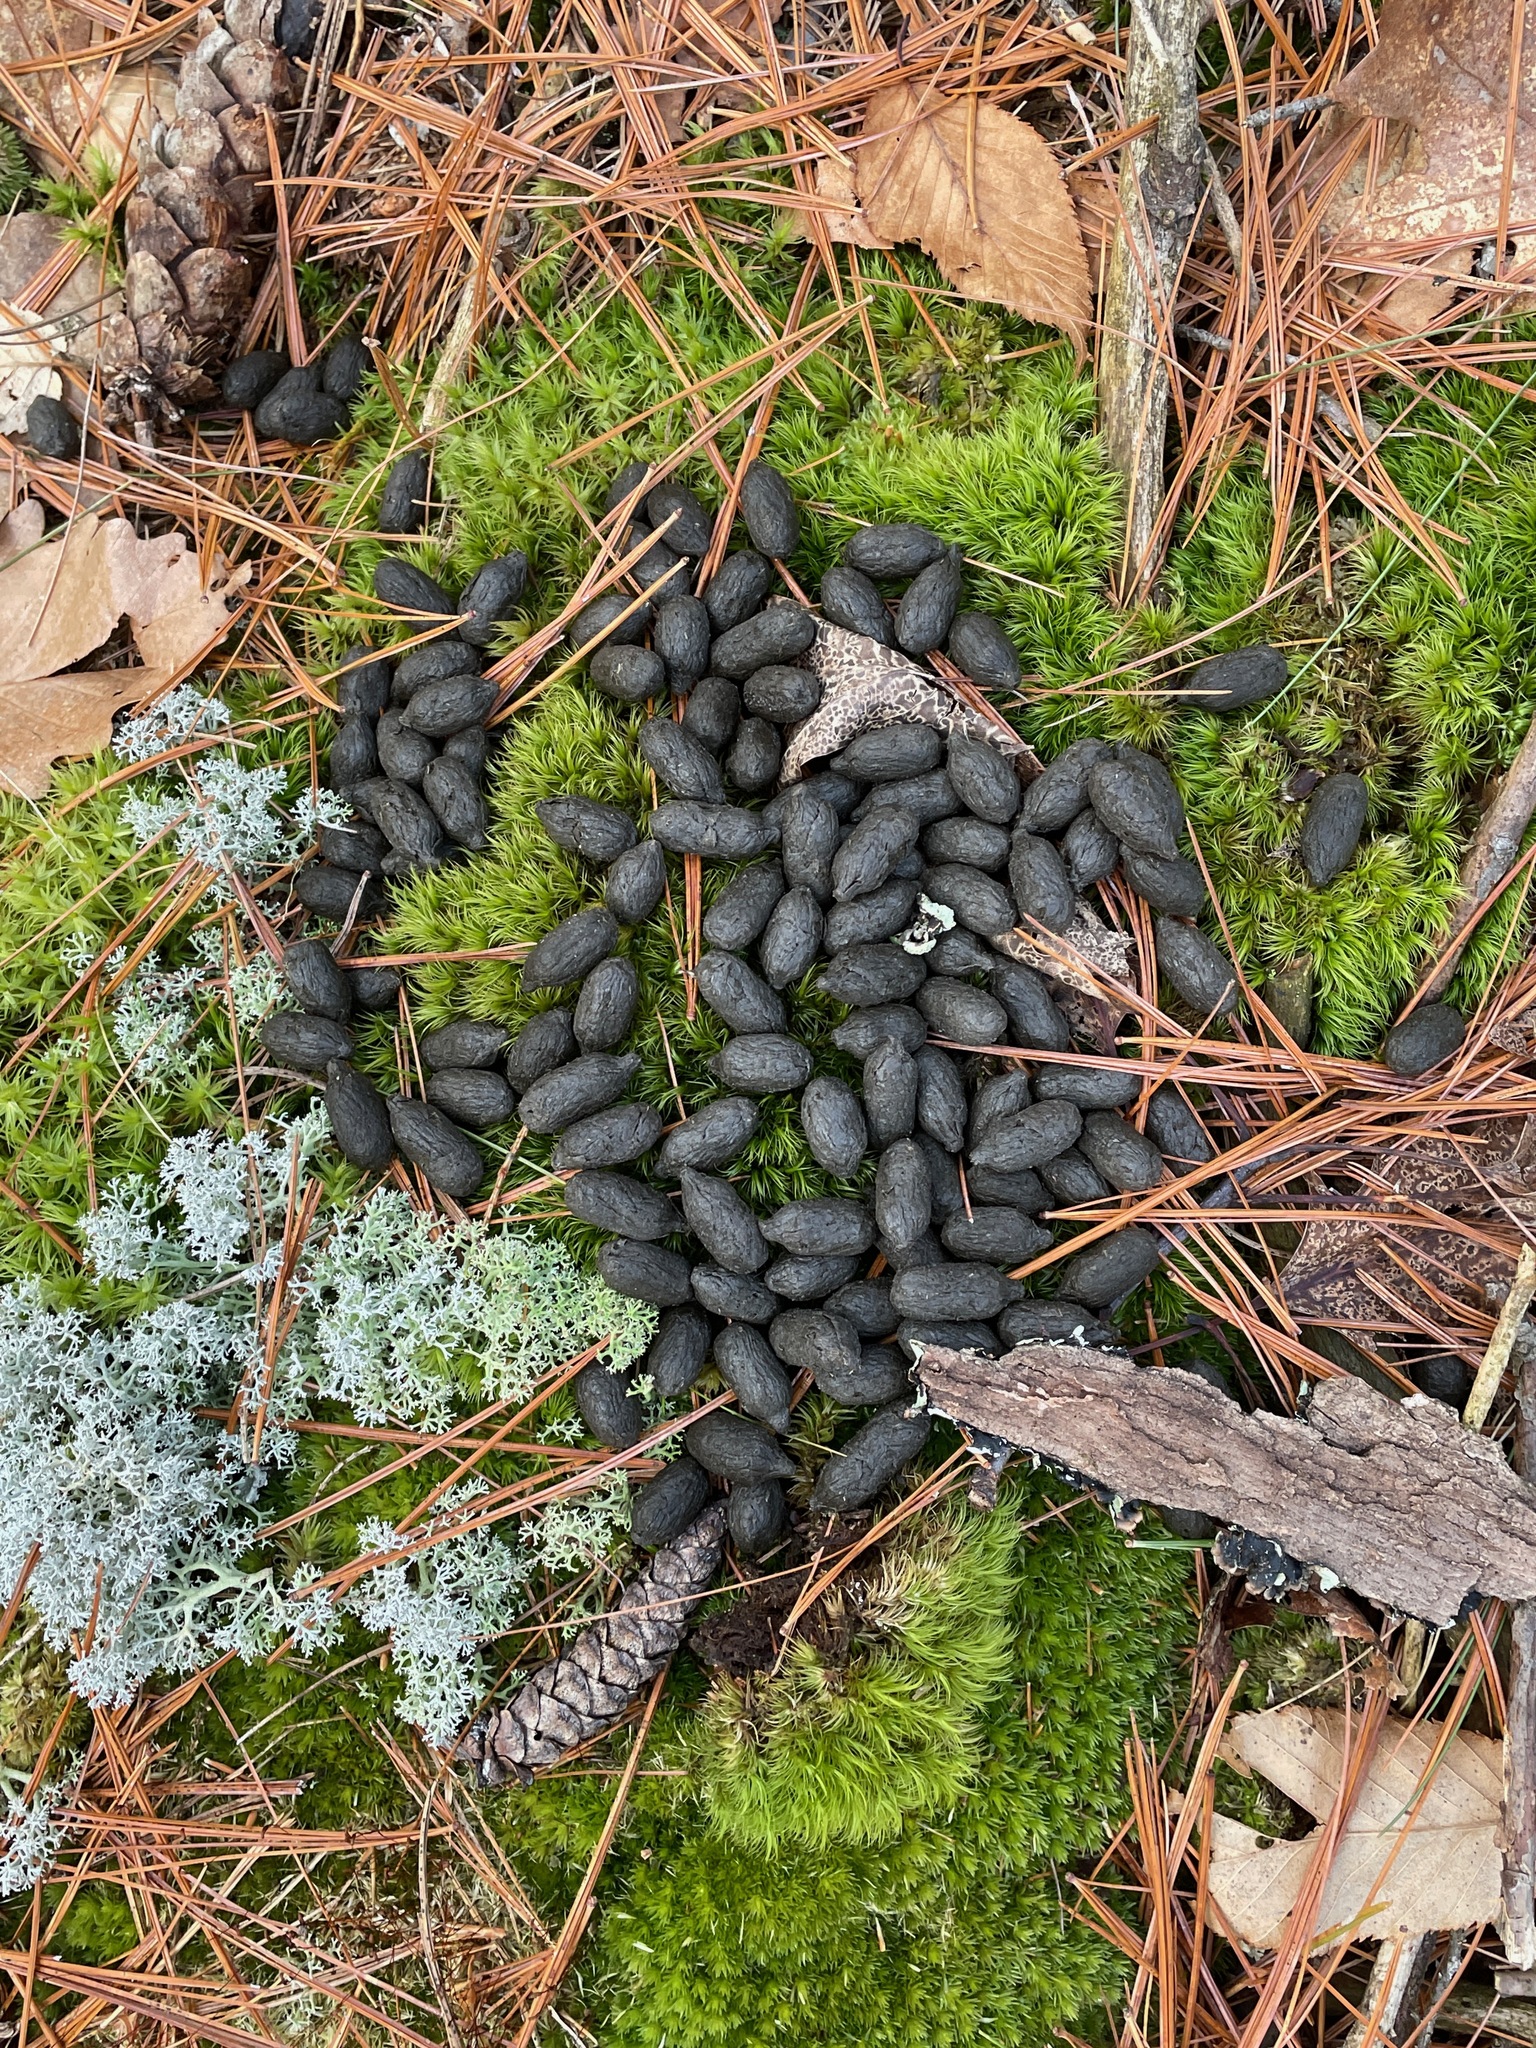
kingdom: Animalia
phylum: Chordata
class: Mammalia
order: Artiodactyla
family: Cervidae
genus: Odocoileus
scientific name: Odocoileus virginianus
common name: White-tailed deer
